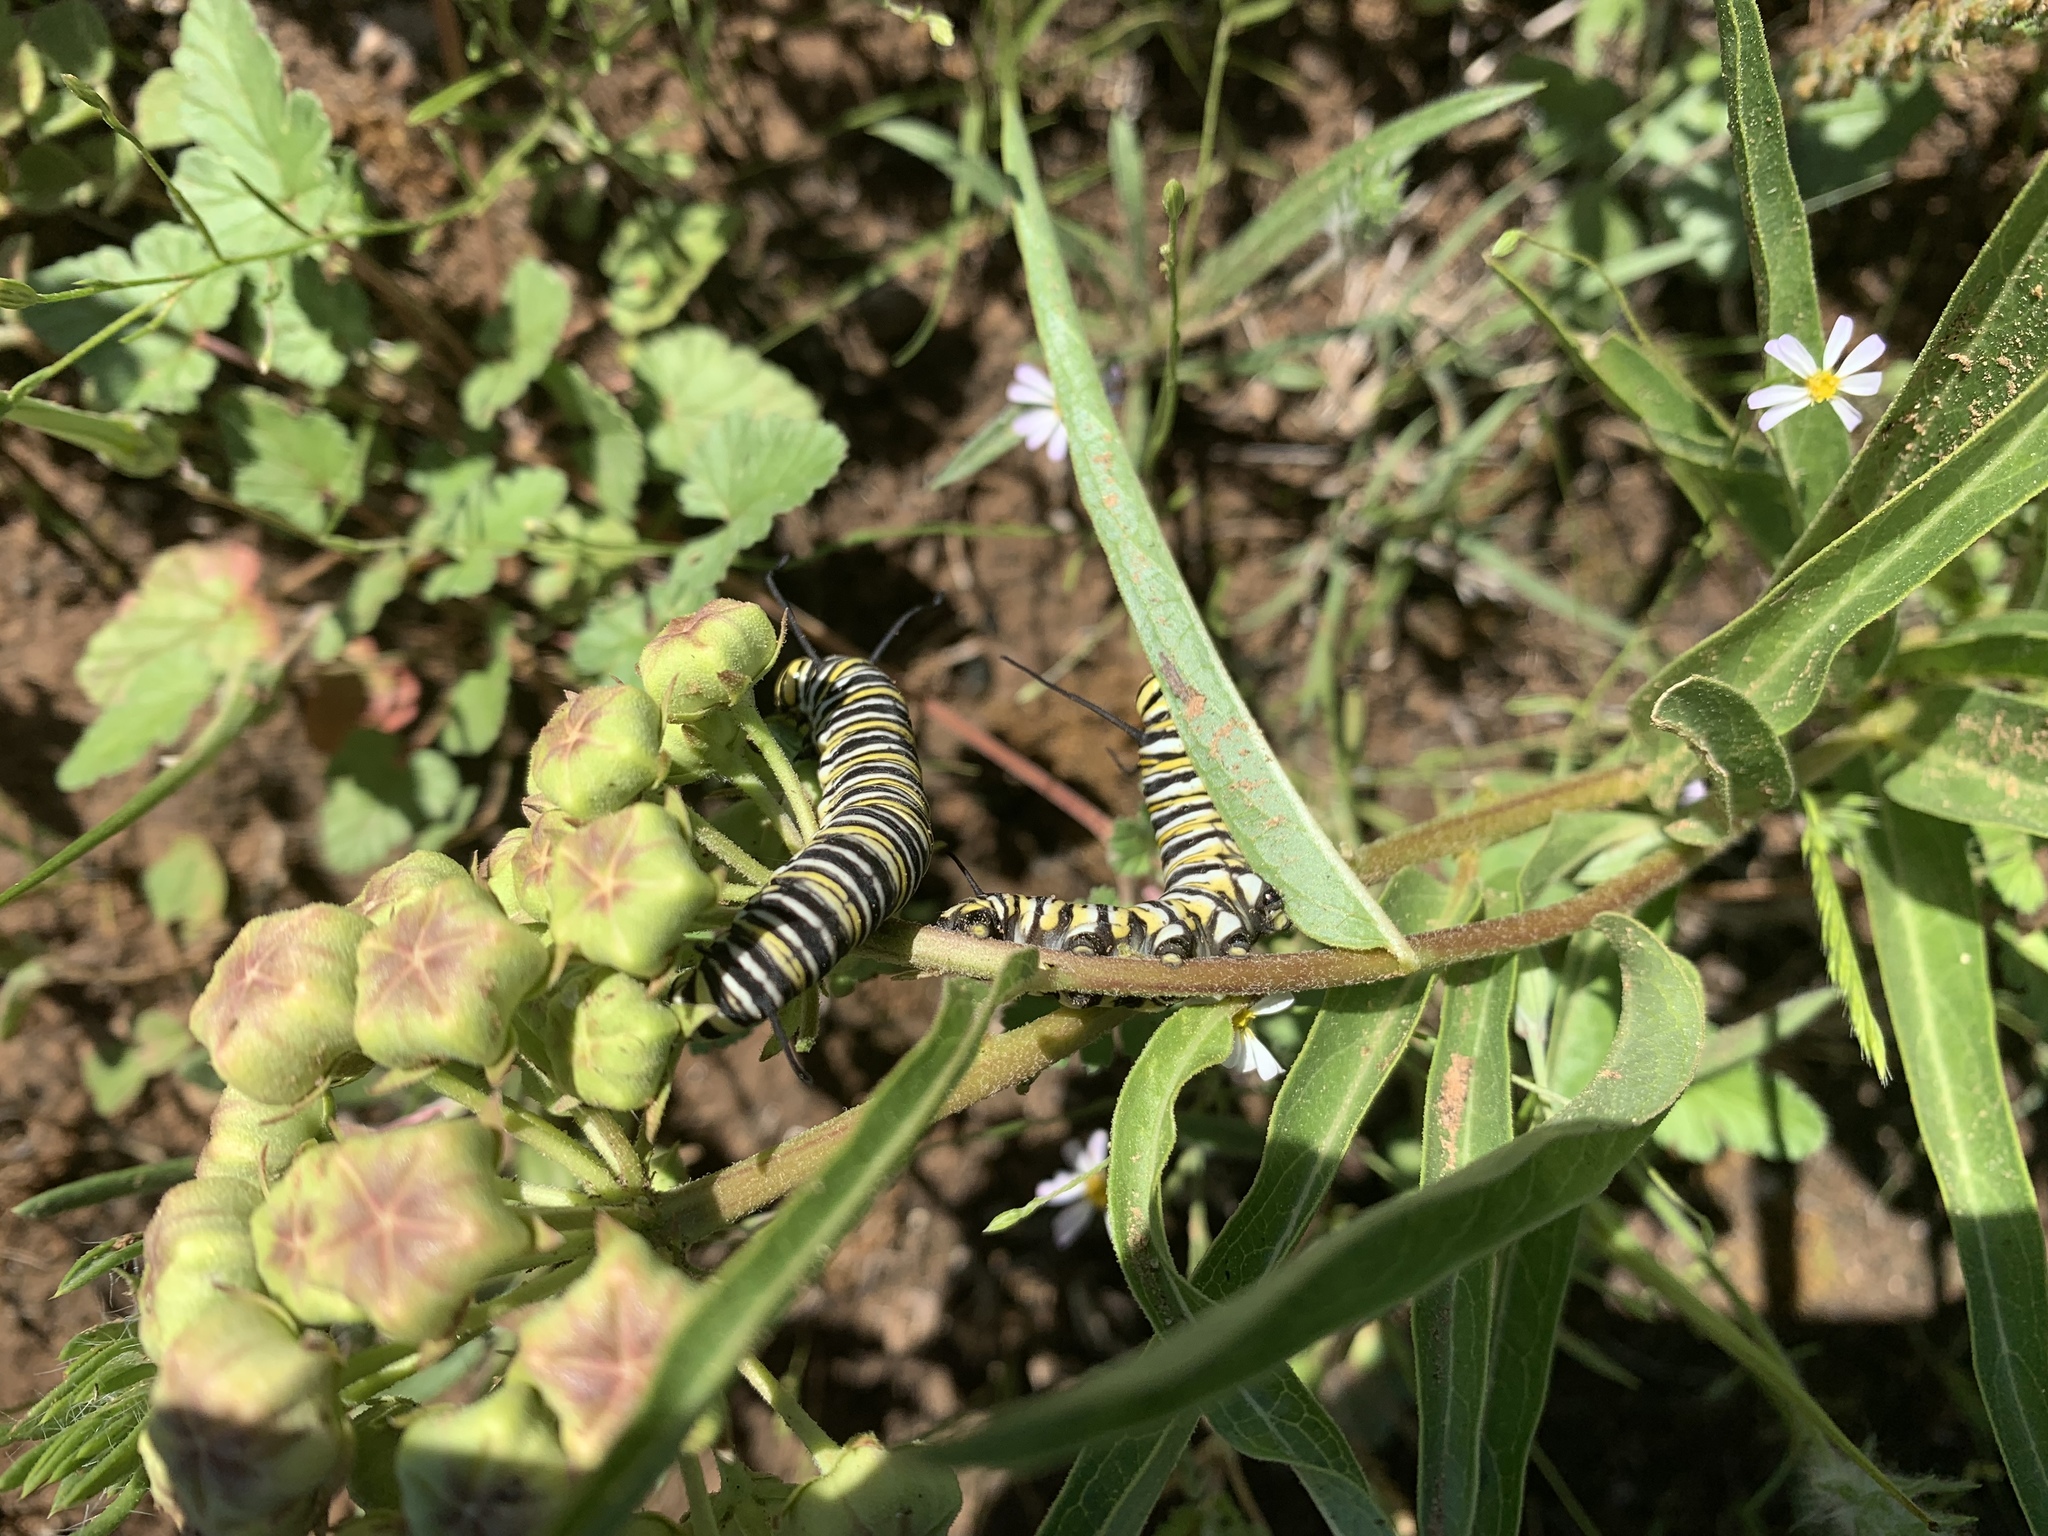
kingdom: Animalia
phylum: Arthropoda
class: Insecta
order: Lepidoptera
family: Nymphalidae
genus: Danaus
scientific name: Danaus plexippus
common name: Monarch
